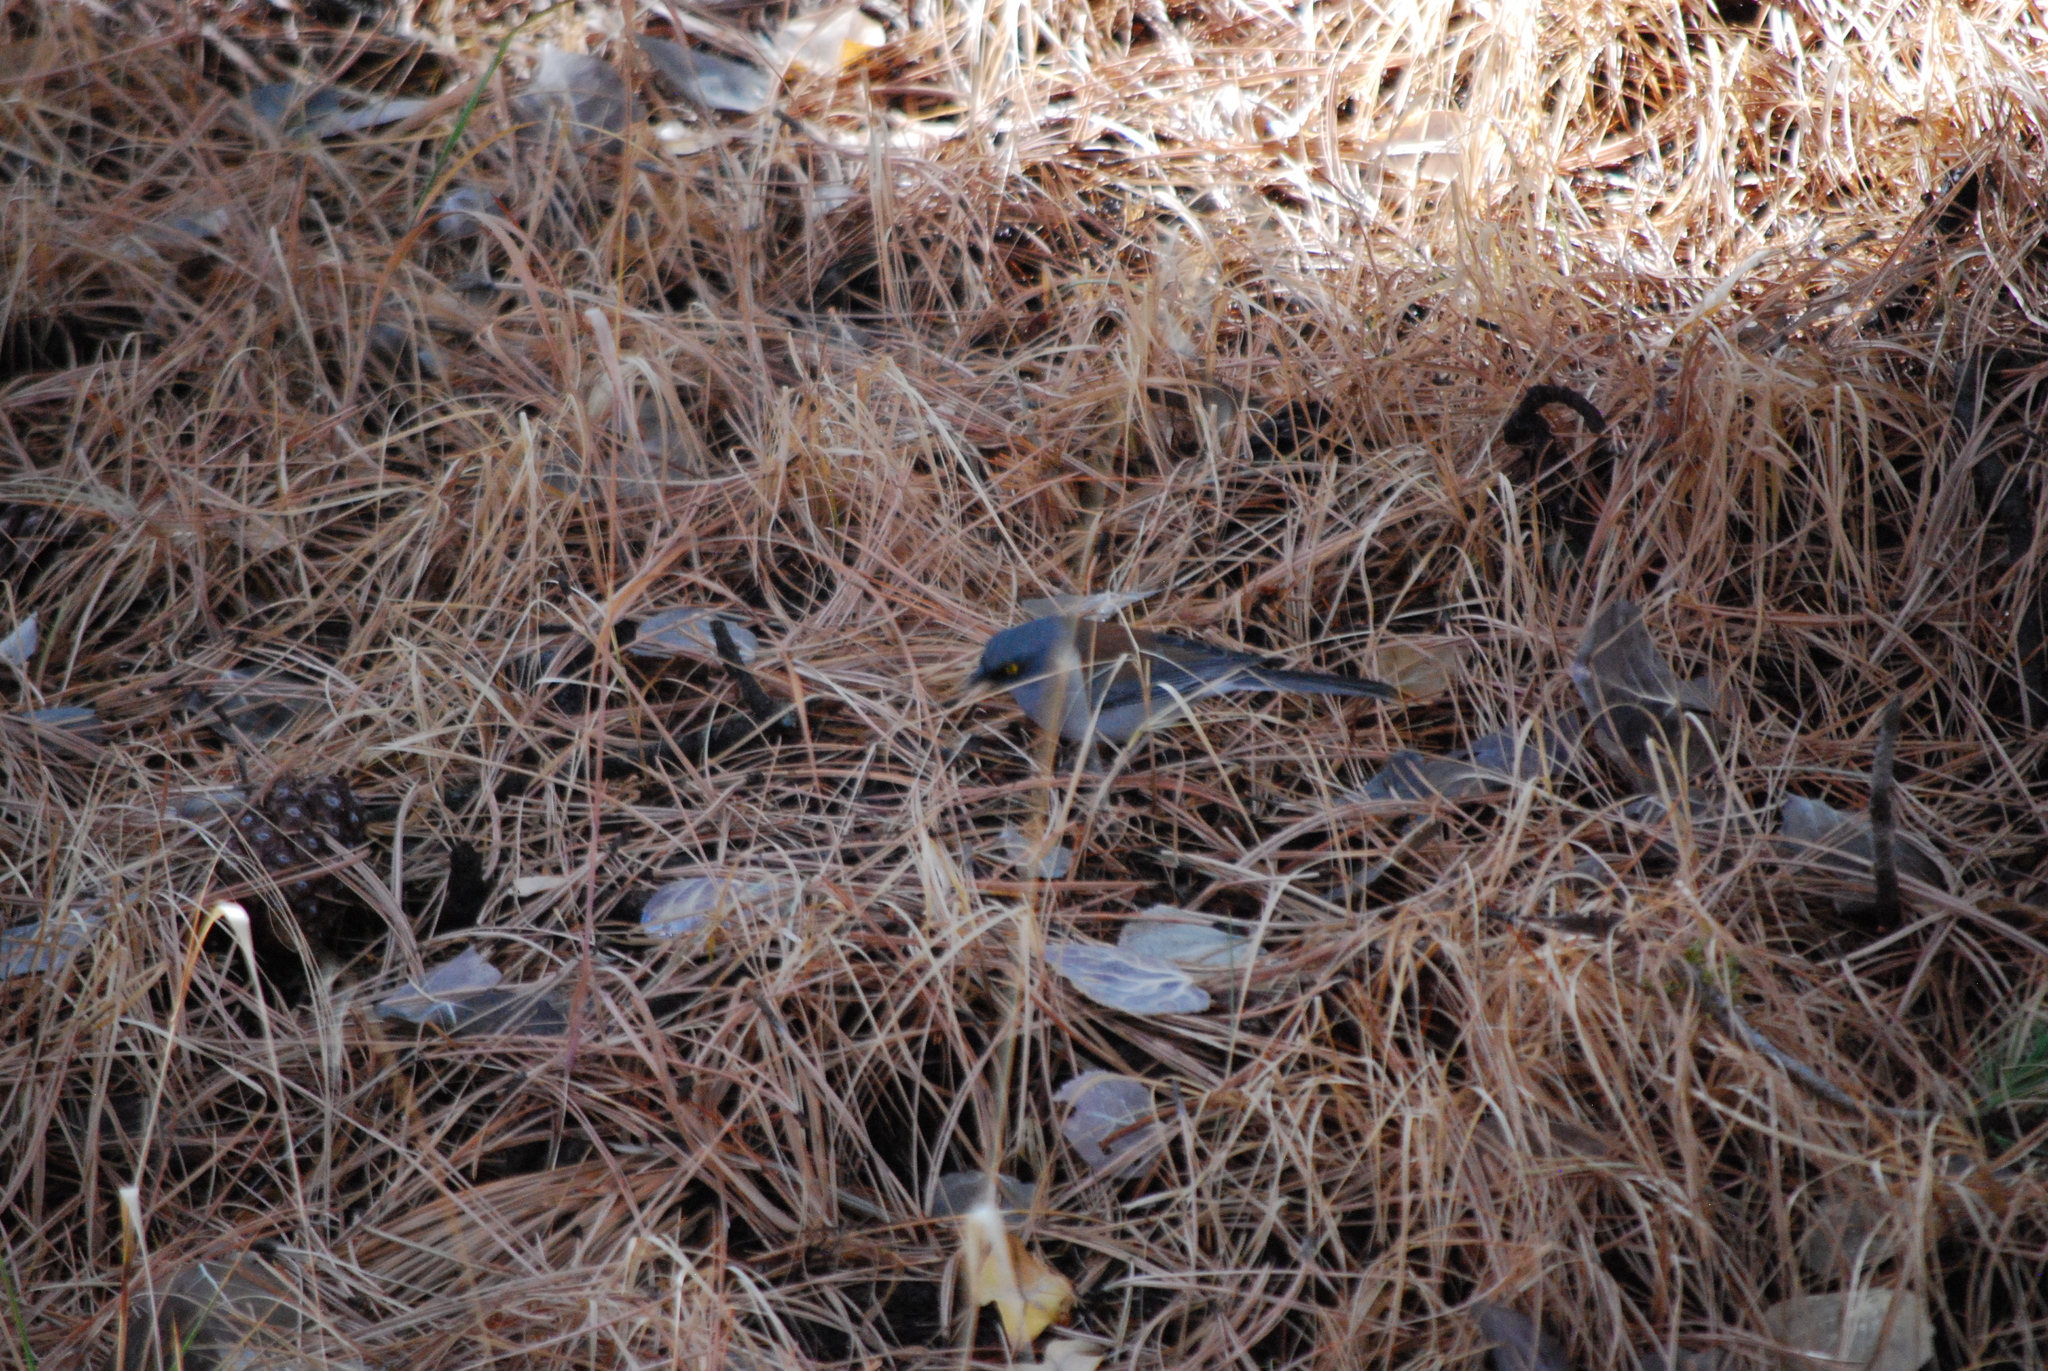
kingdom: Animalia
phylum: Chordata
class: Aves
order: Passeriformes
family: Passerellidae
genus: Junco
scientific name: Junco phaeonotus
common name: Yellow-eyed junco
